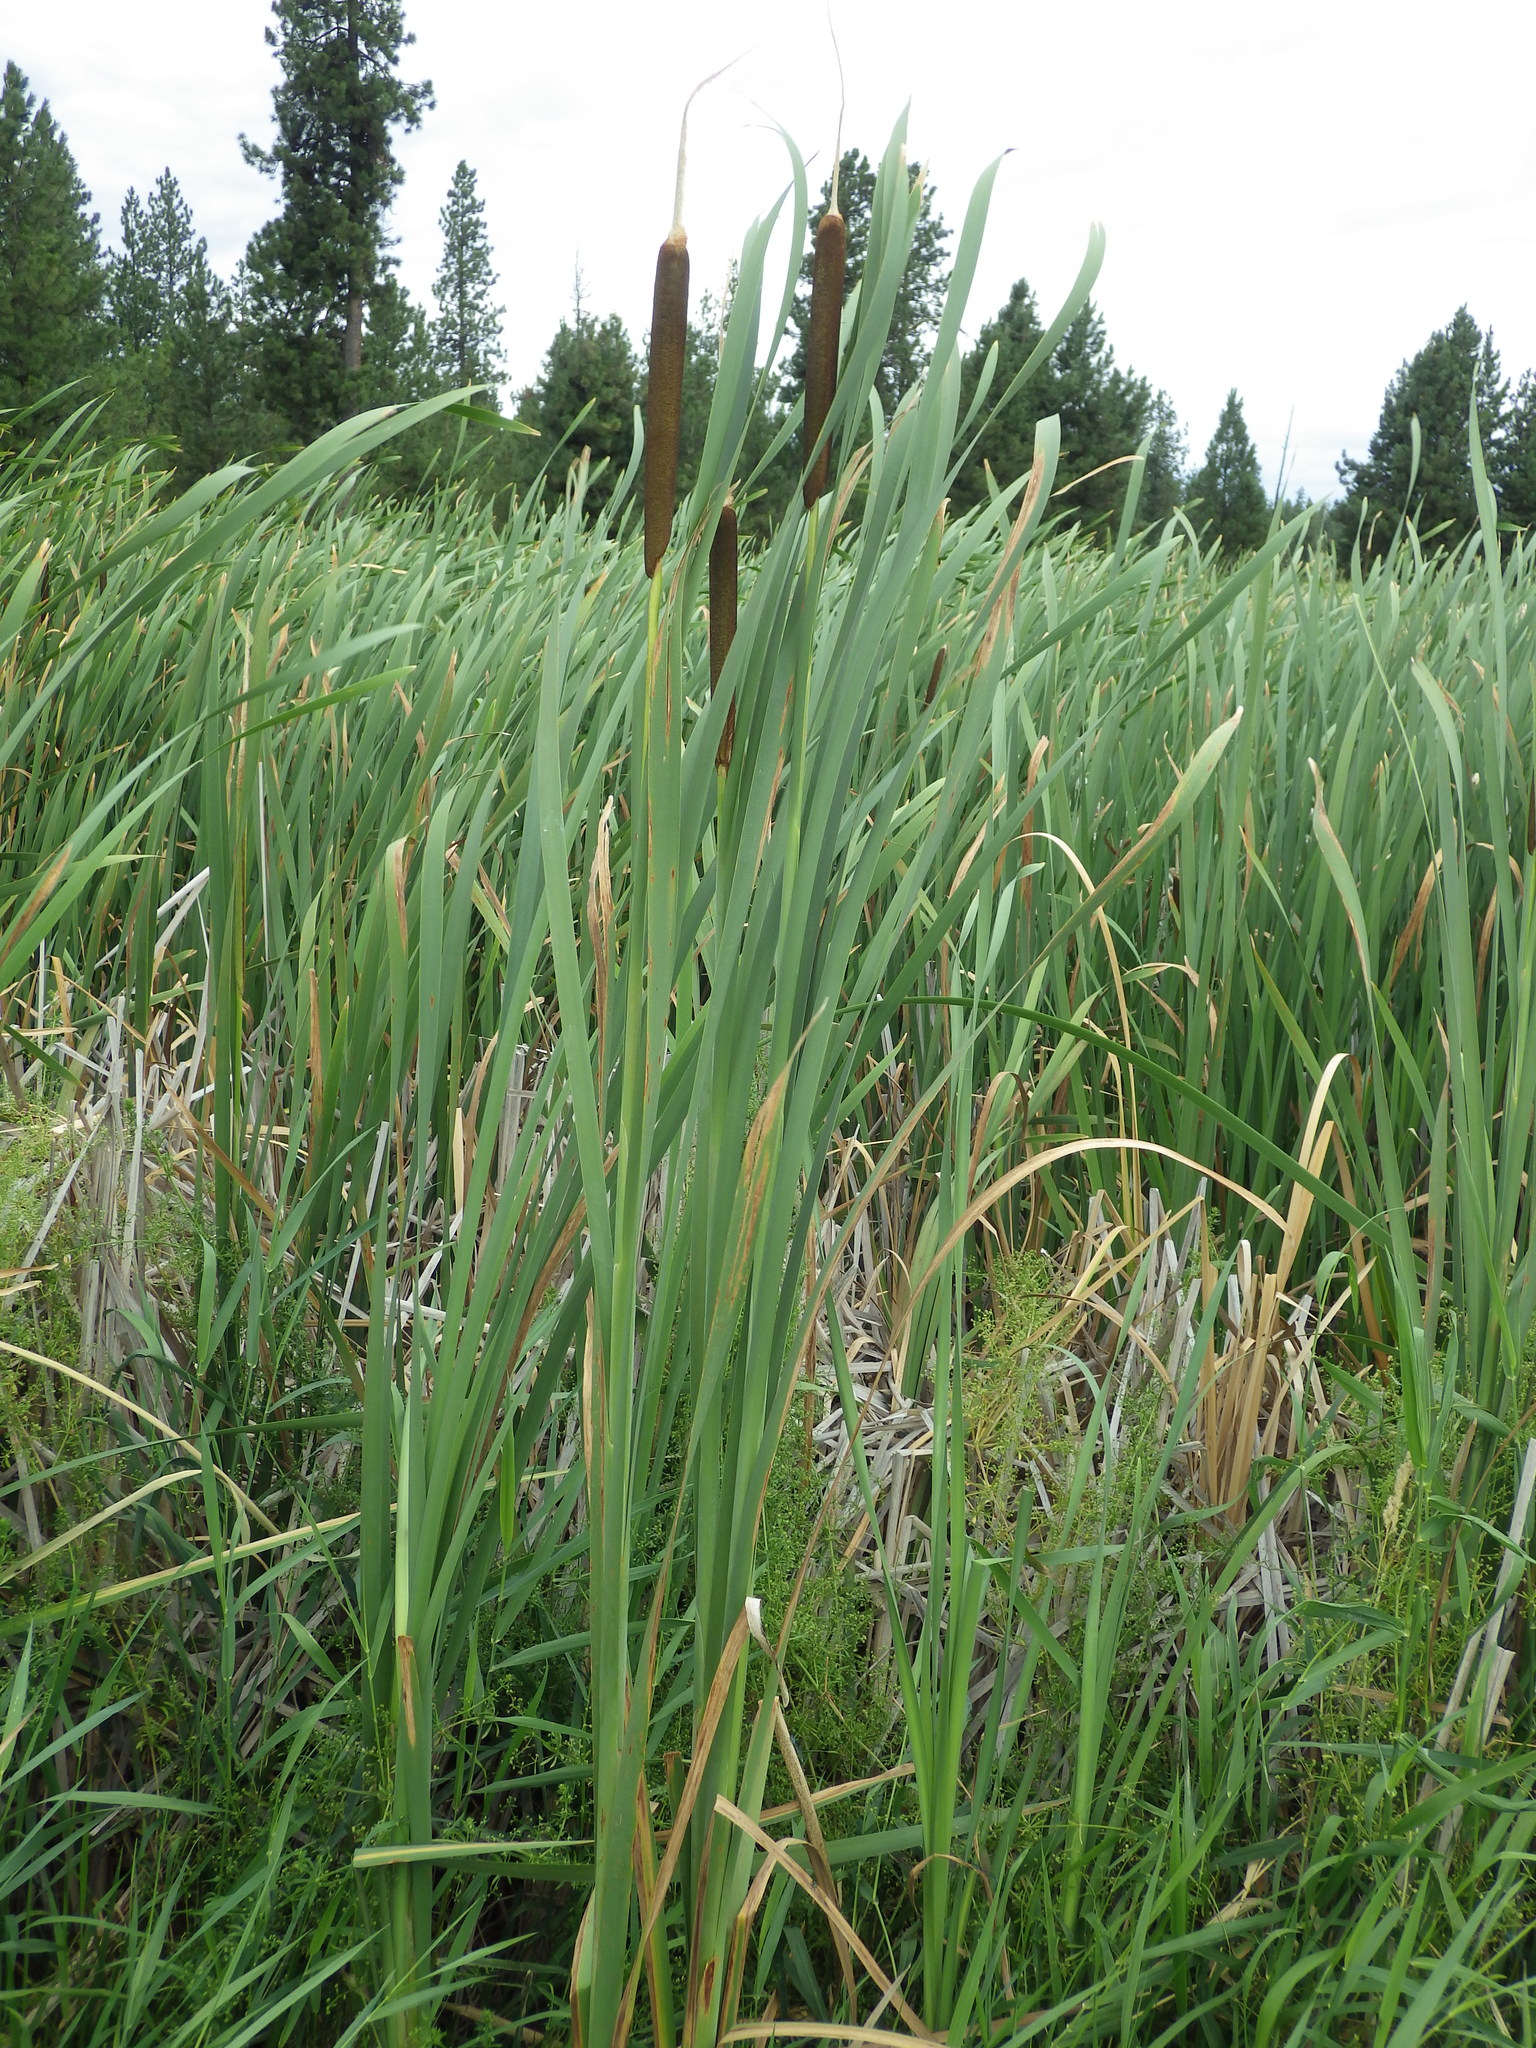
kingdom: Plantae
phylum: Tracheophyta
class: Liliopsida
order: Poales
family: Typhaceae
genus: Typha
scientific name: Typha latifolia
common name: Broadleaf cattail
